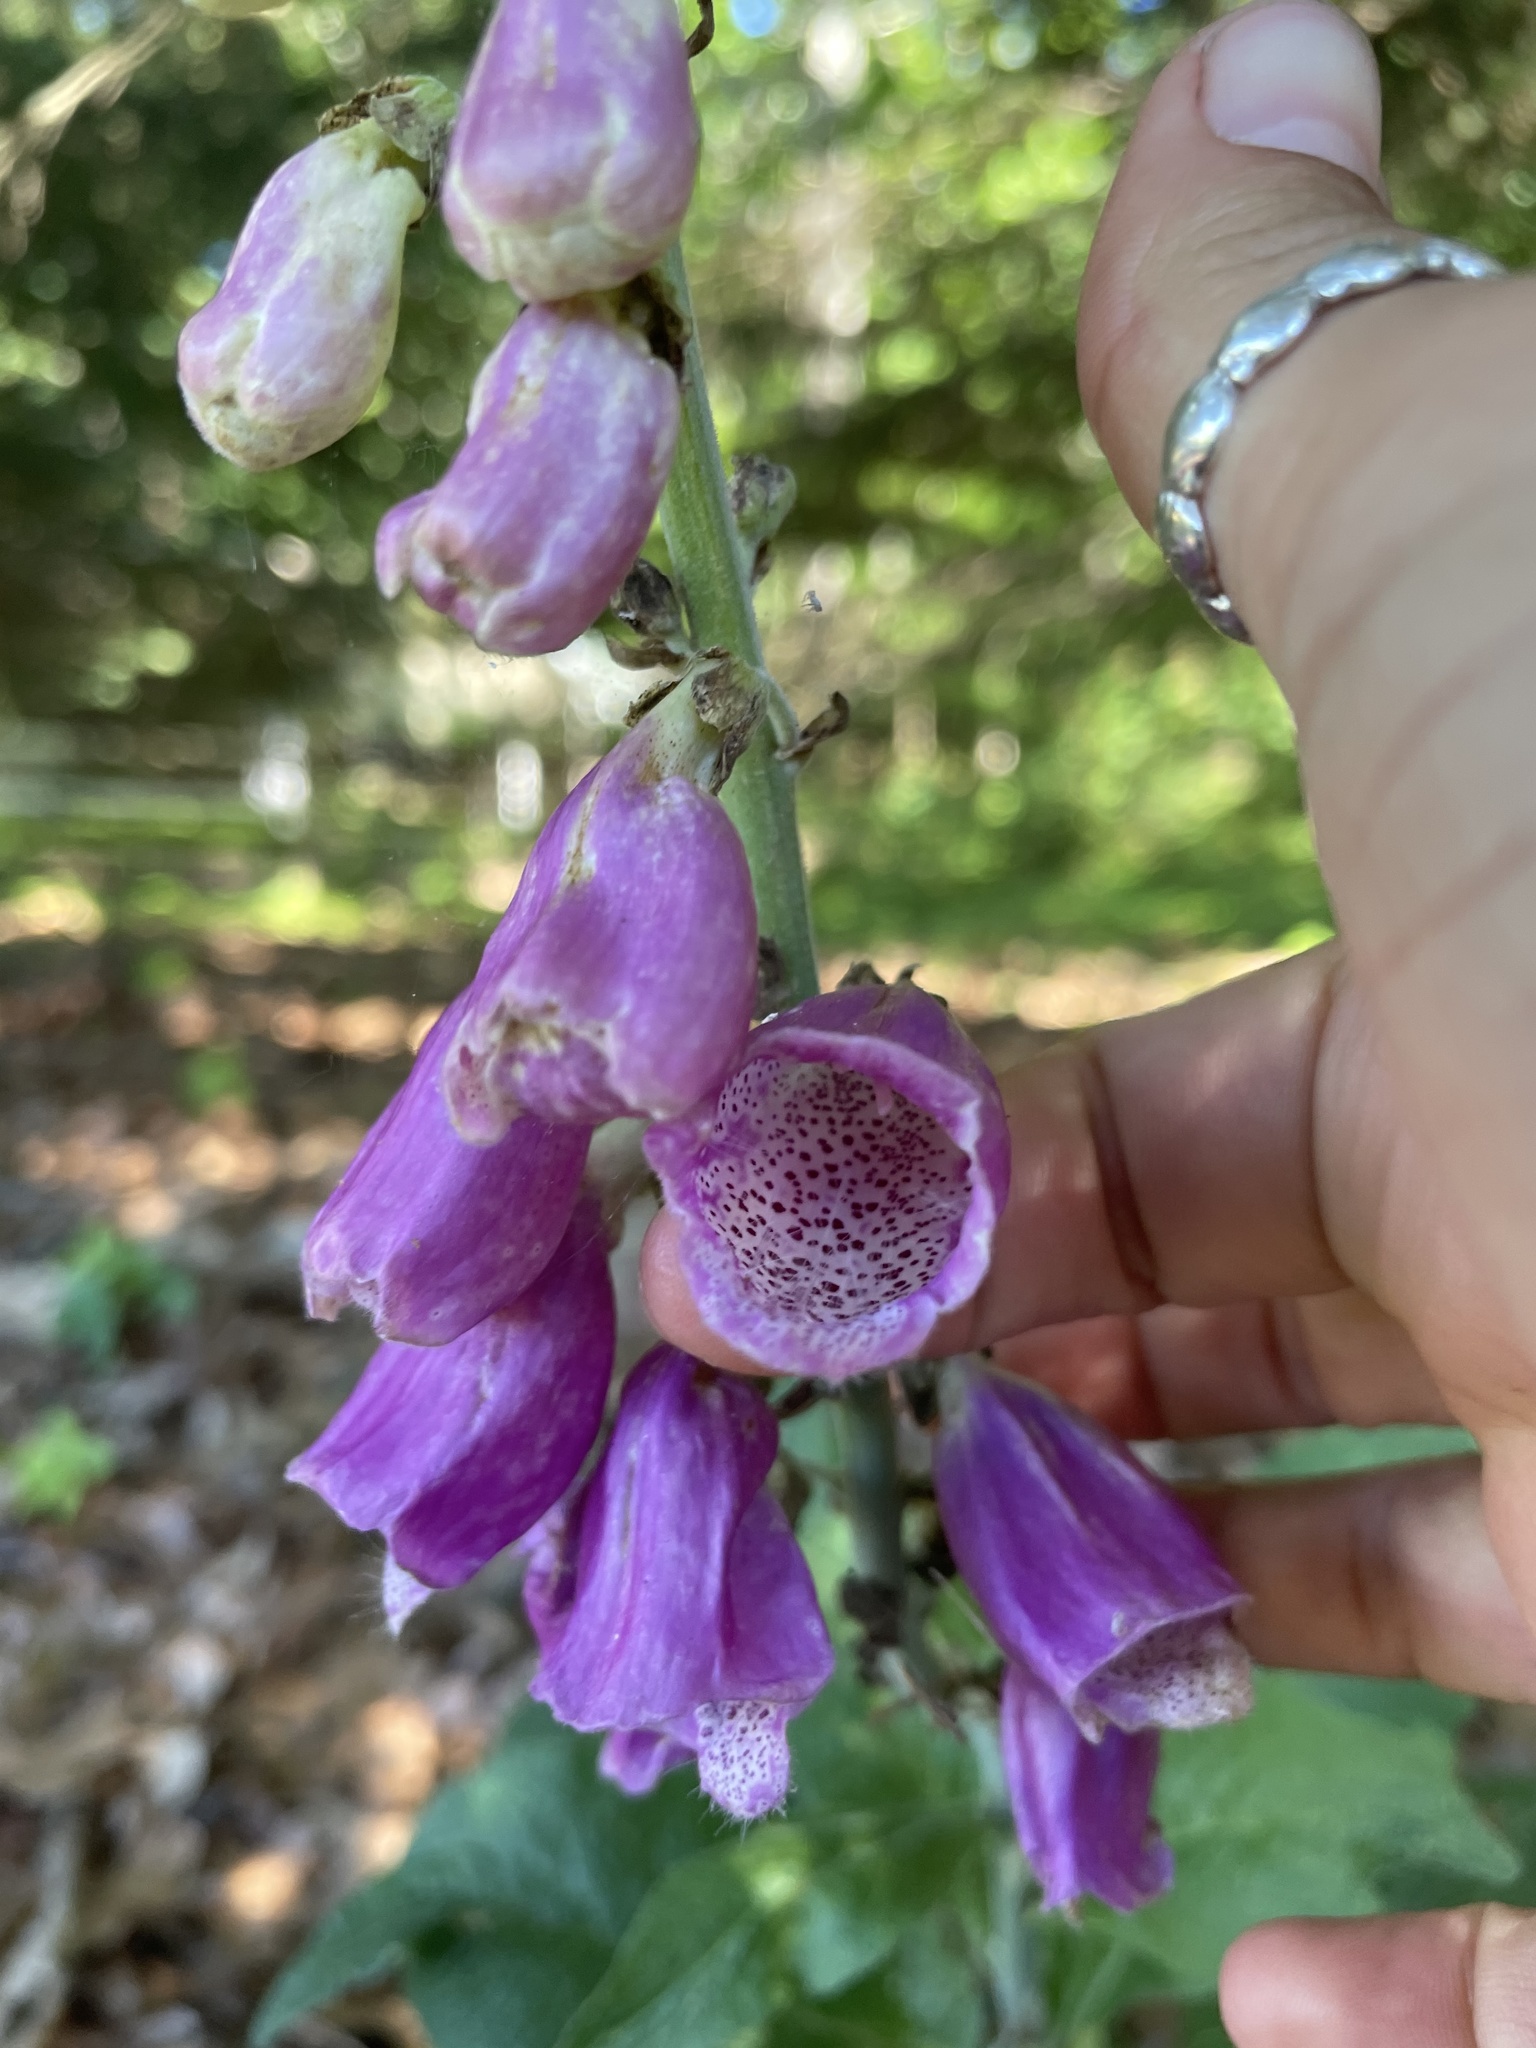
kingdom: Plantae
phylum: Tracheophyta
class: Magnoliopsida
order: Lamiales
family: Plantaginaceae
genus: Digitalis
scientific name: Digitalis purpurea
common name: Foxglove
